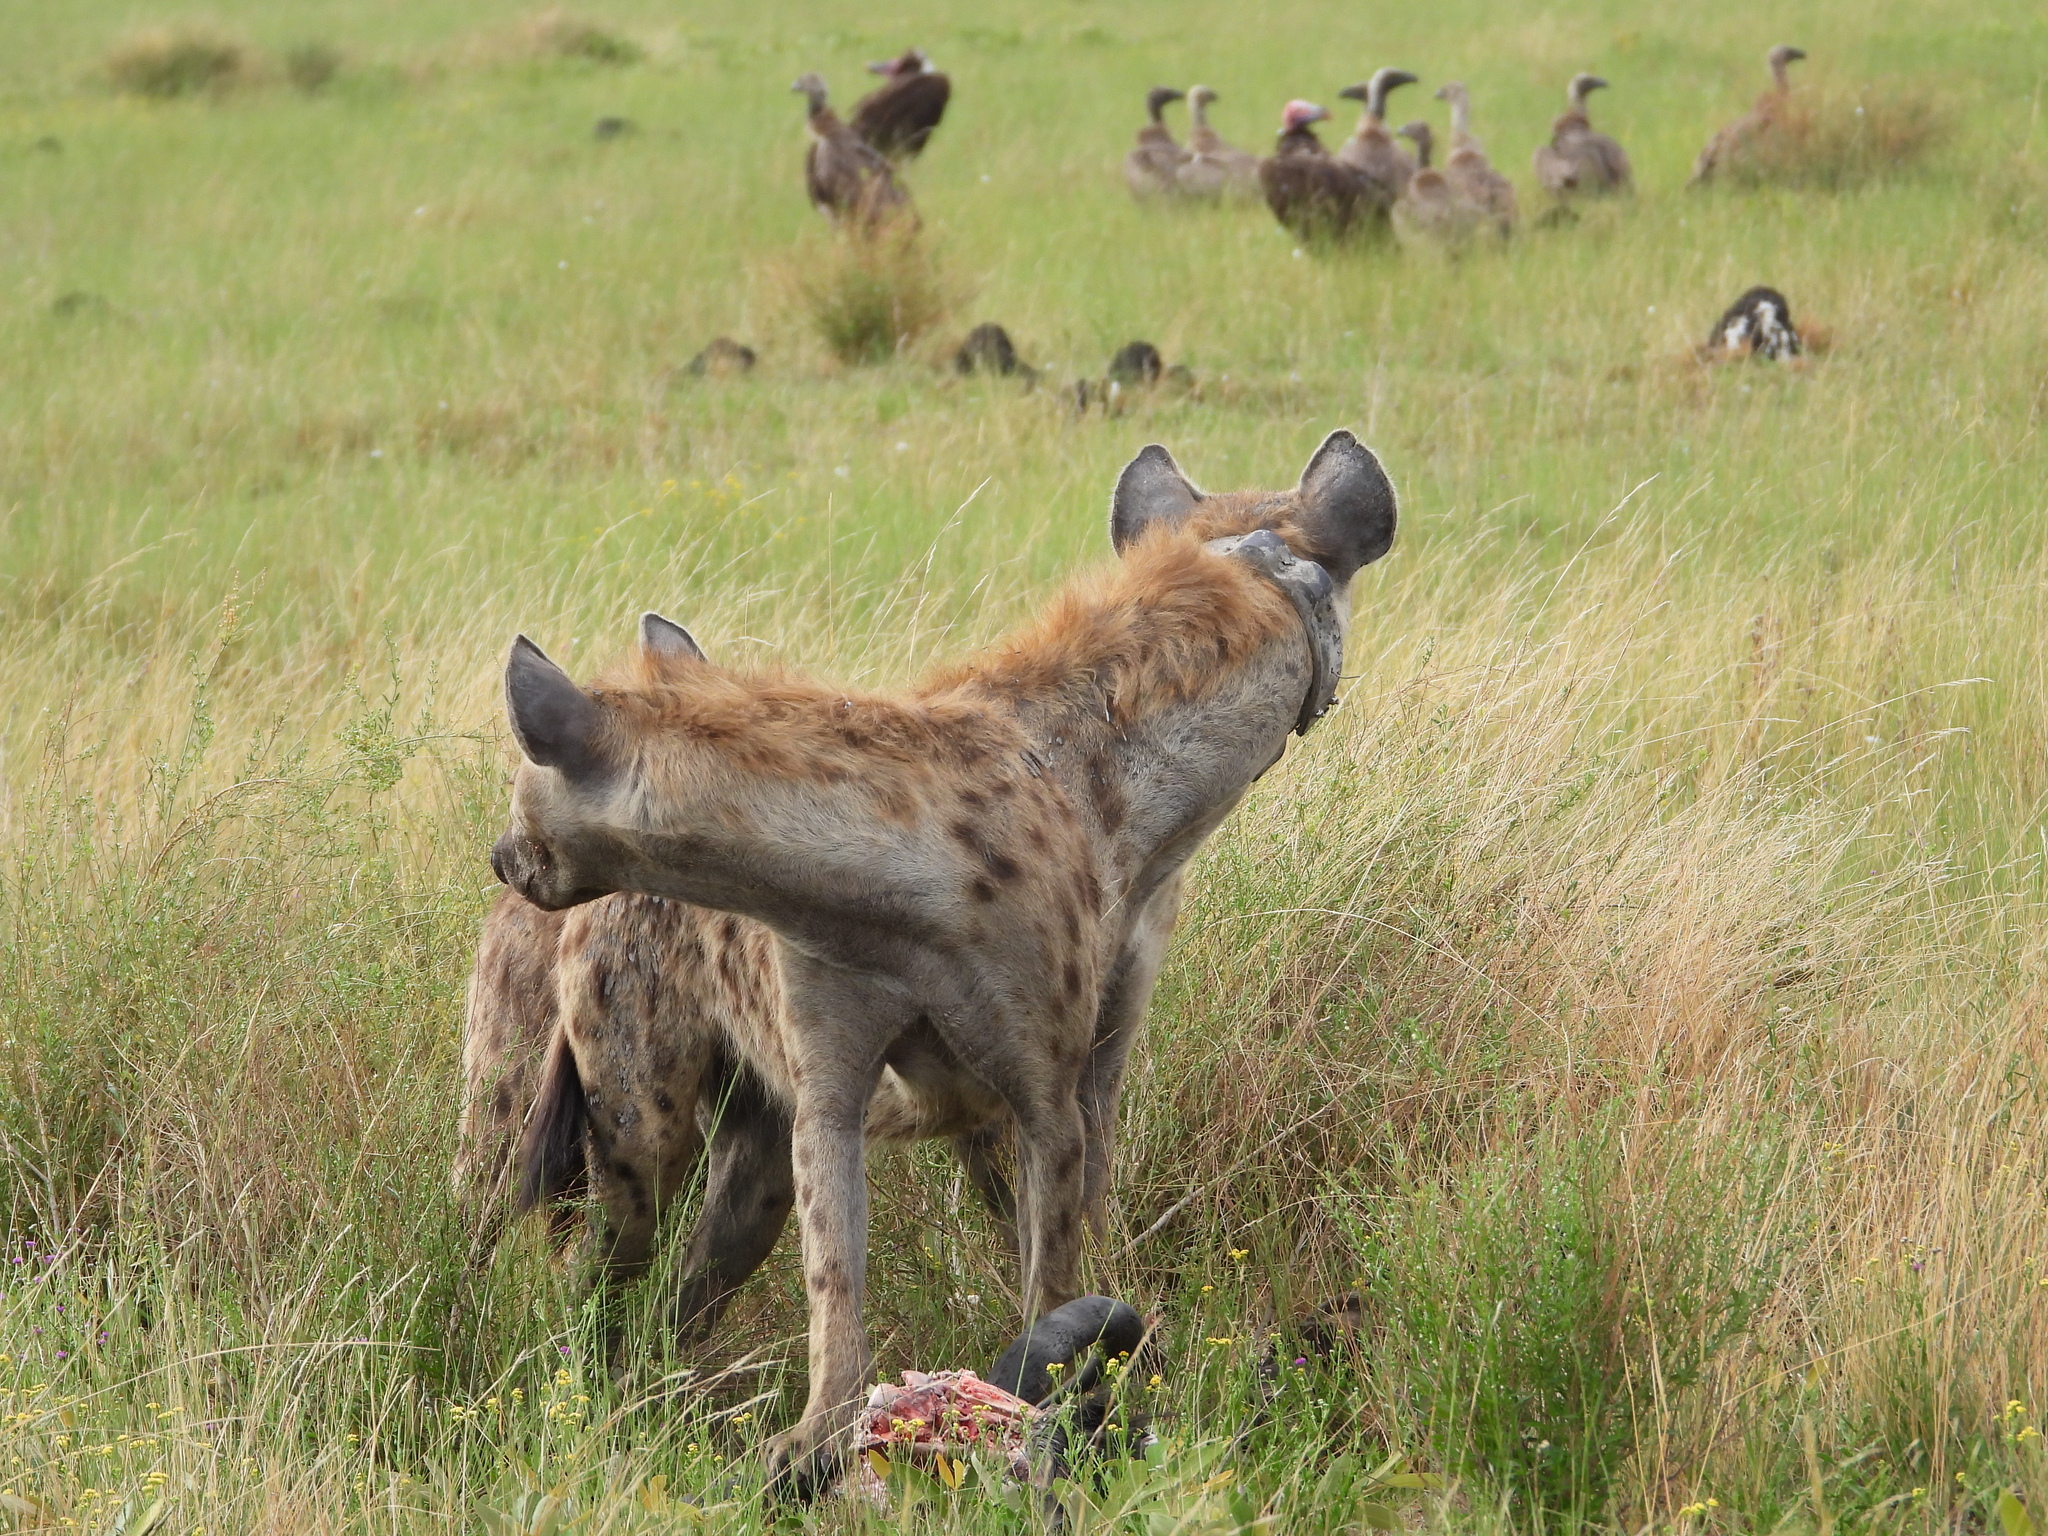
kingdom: Animalia
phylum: Chordata
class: Mammalia
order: Carnivora
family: Hyaenidae
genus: Crocuta
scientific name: Crocuta crocuta
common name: Spotted hyaena
